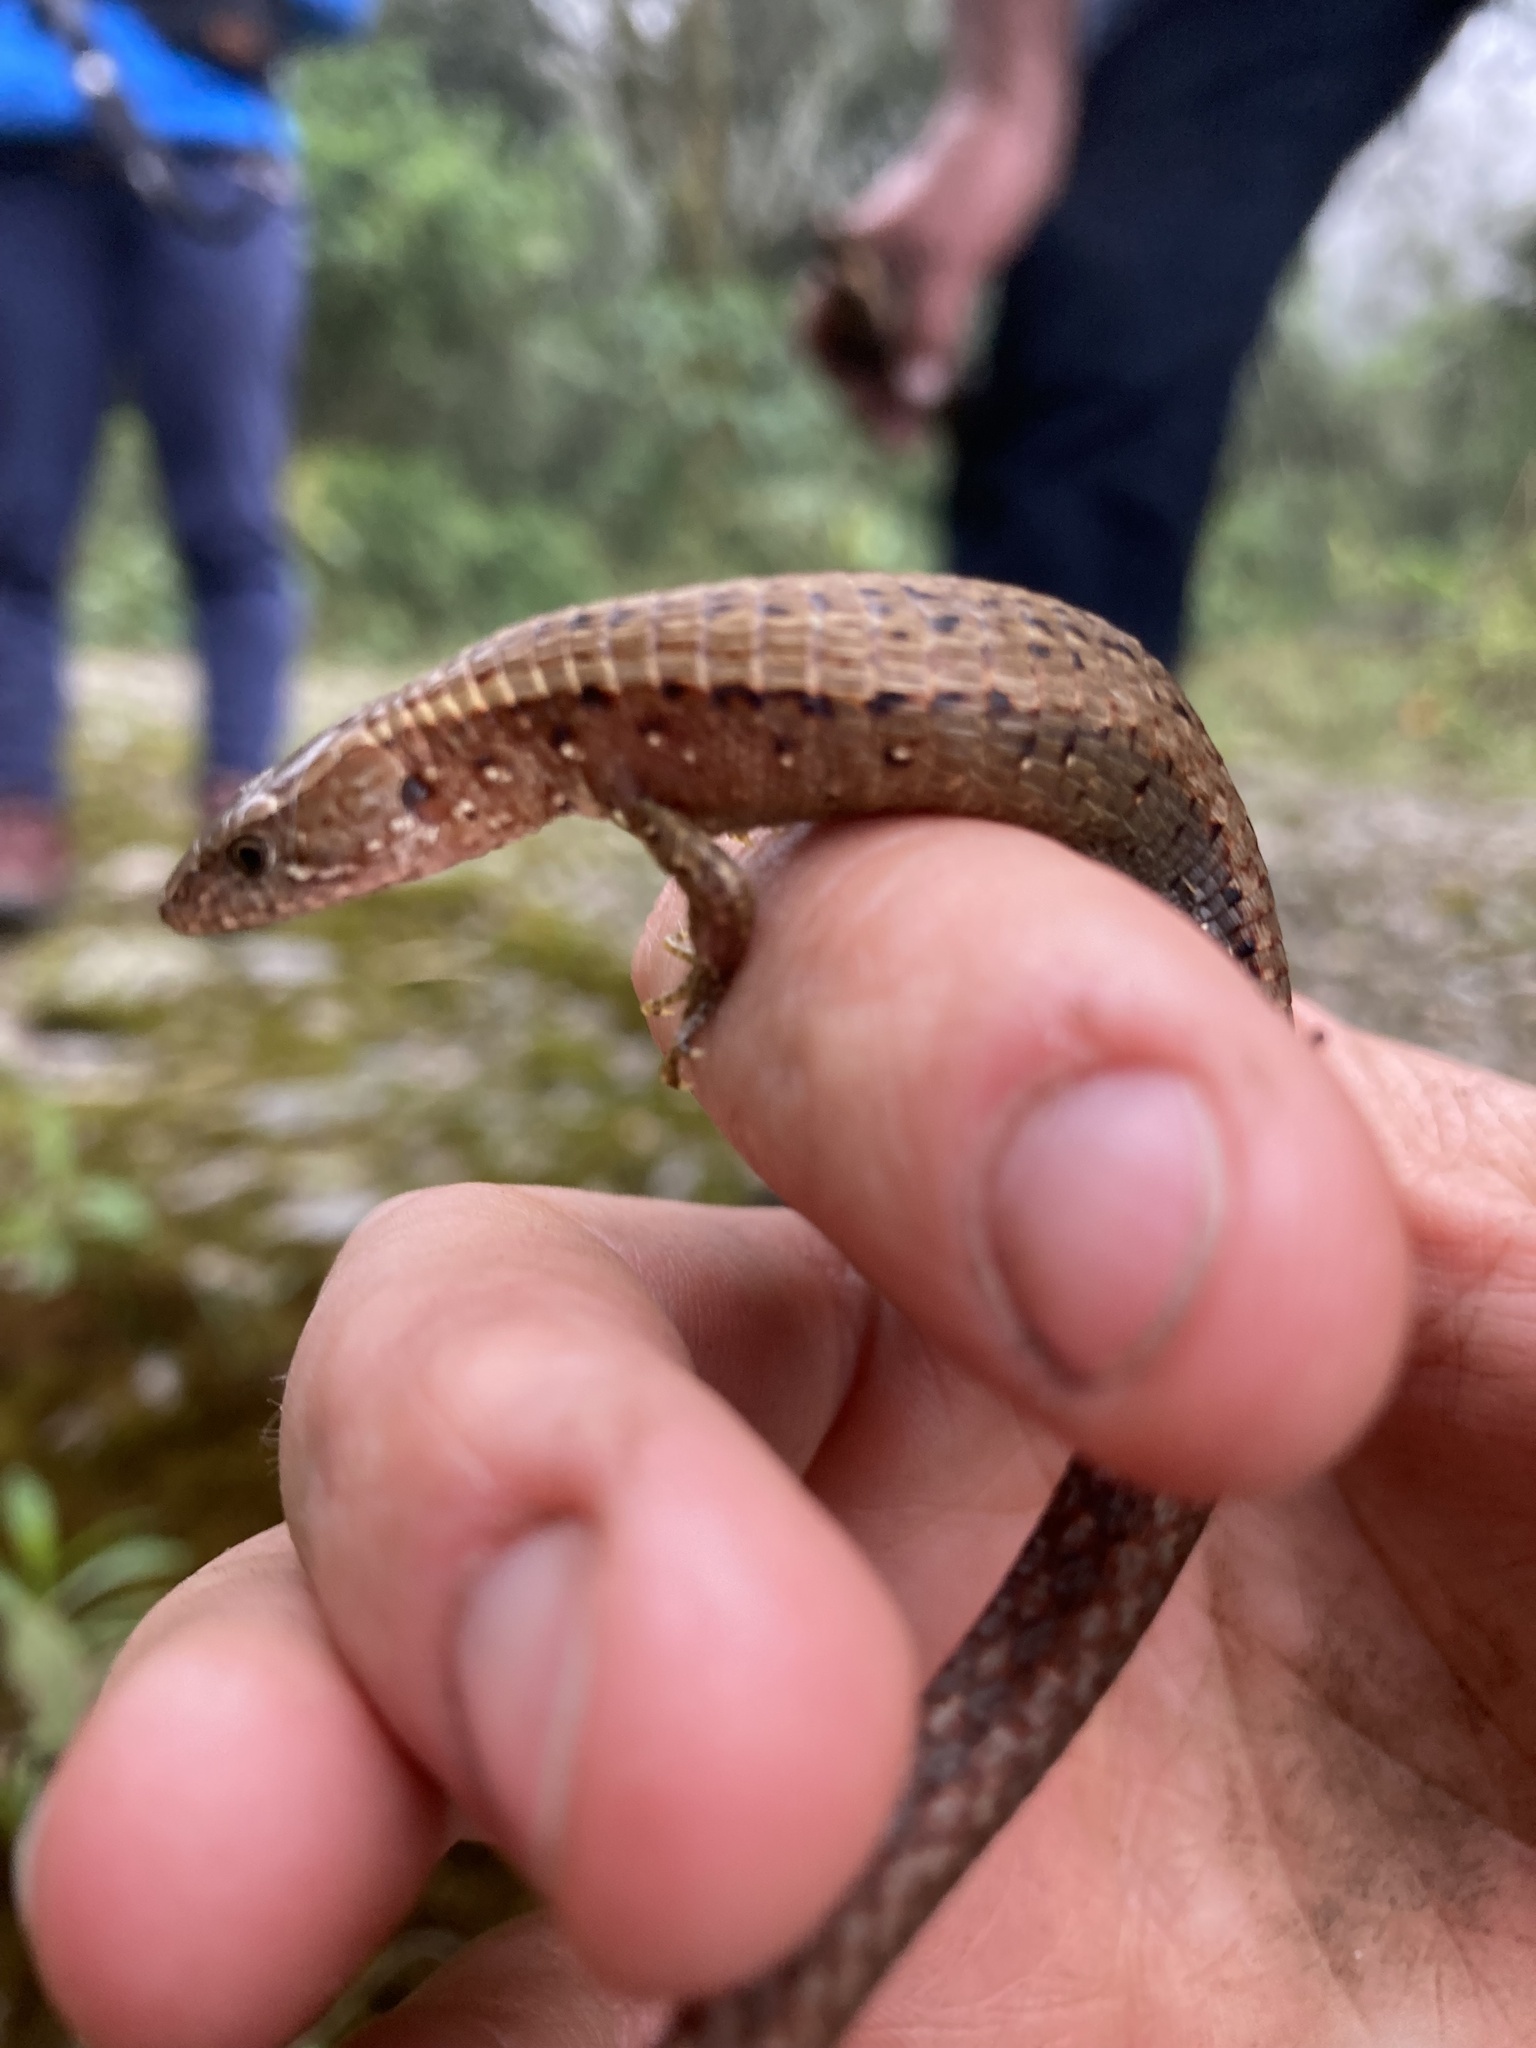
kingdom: Animalia
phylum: Chordata
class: Squamata
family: Gymnophthalmidae
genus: Riama
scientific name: Riama striata
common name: Striped lightbulb lizard
